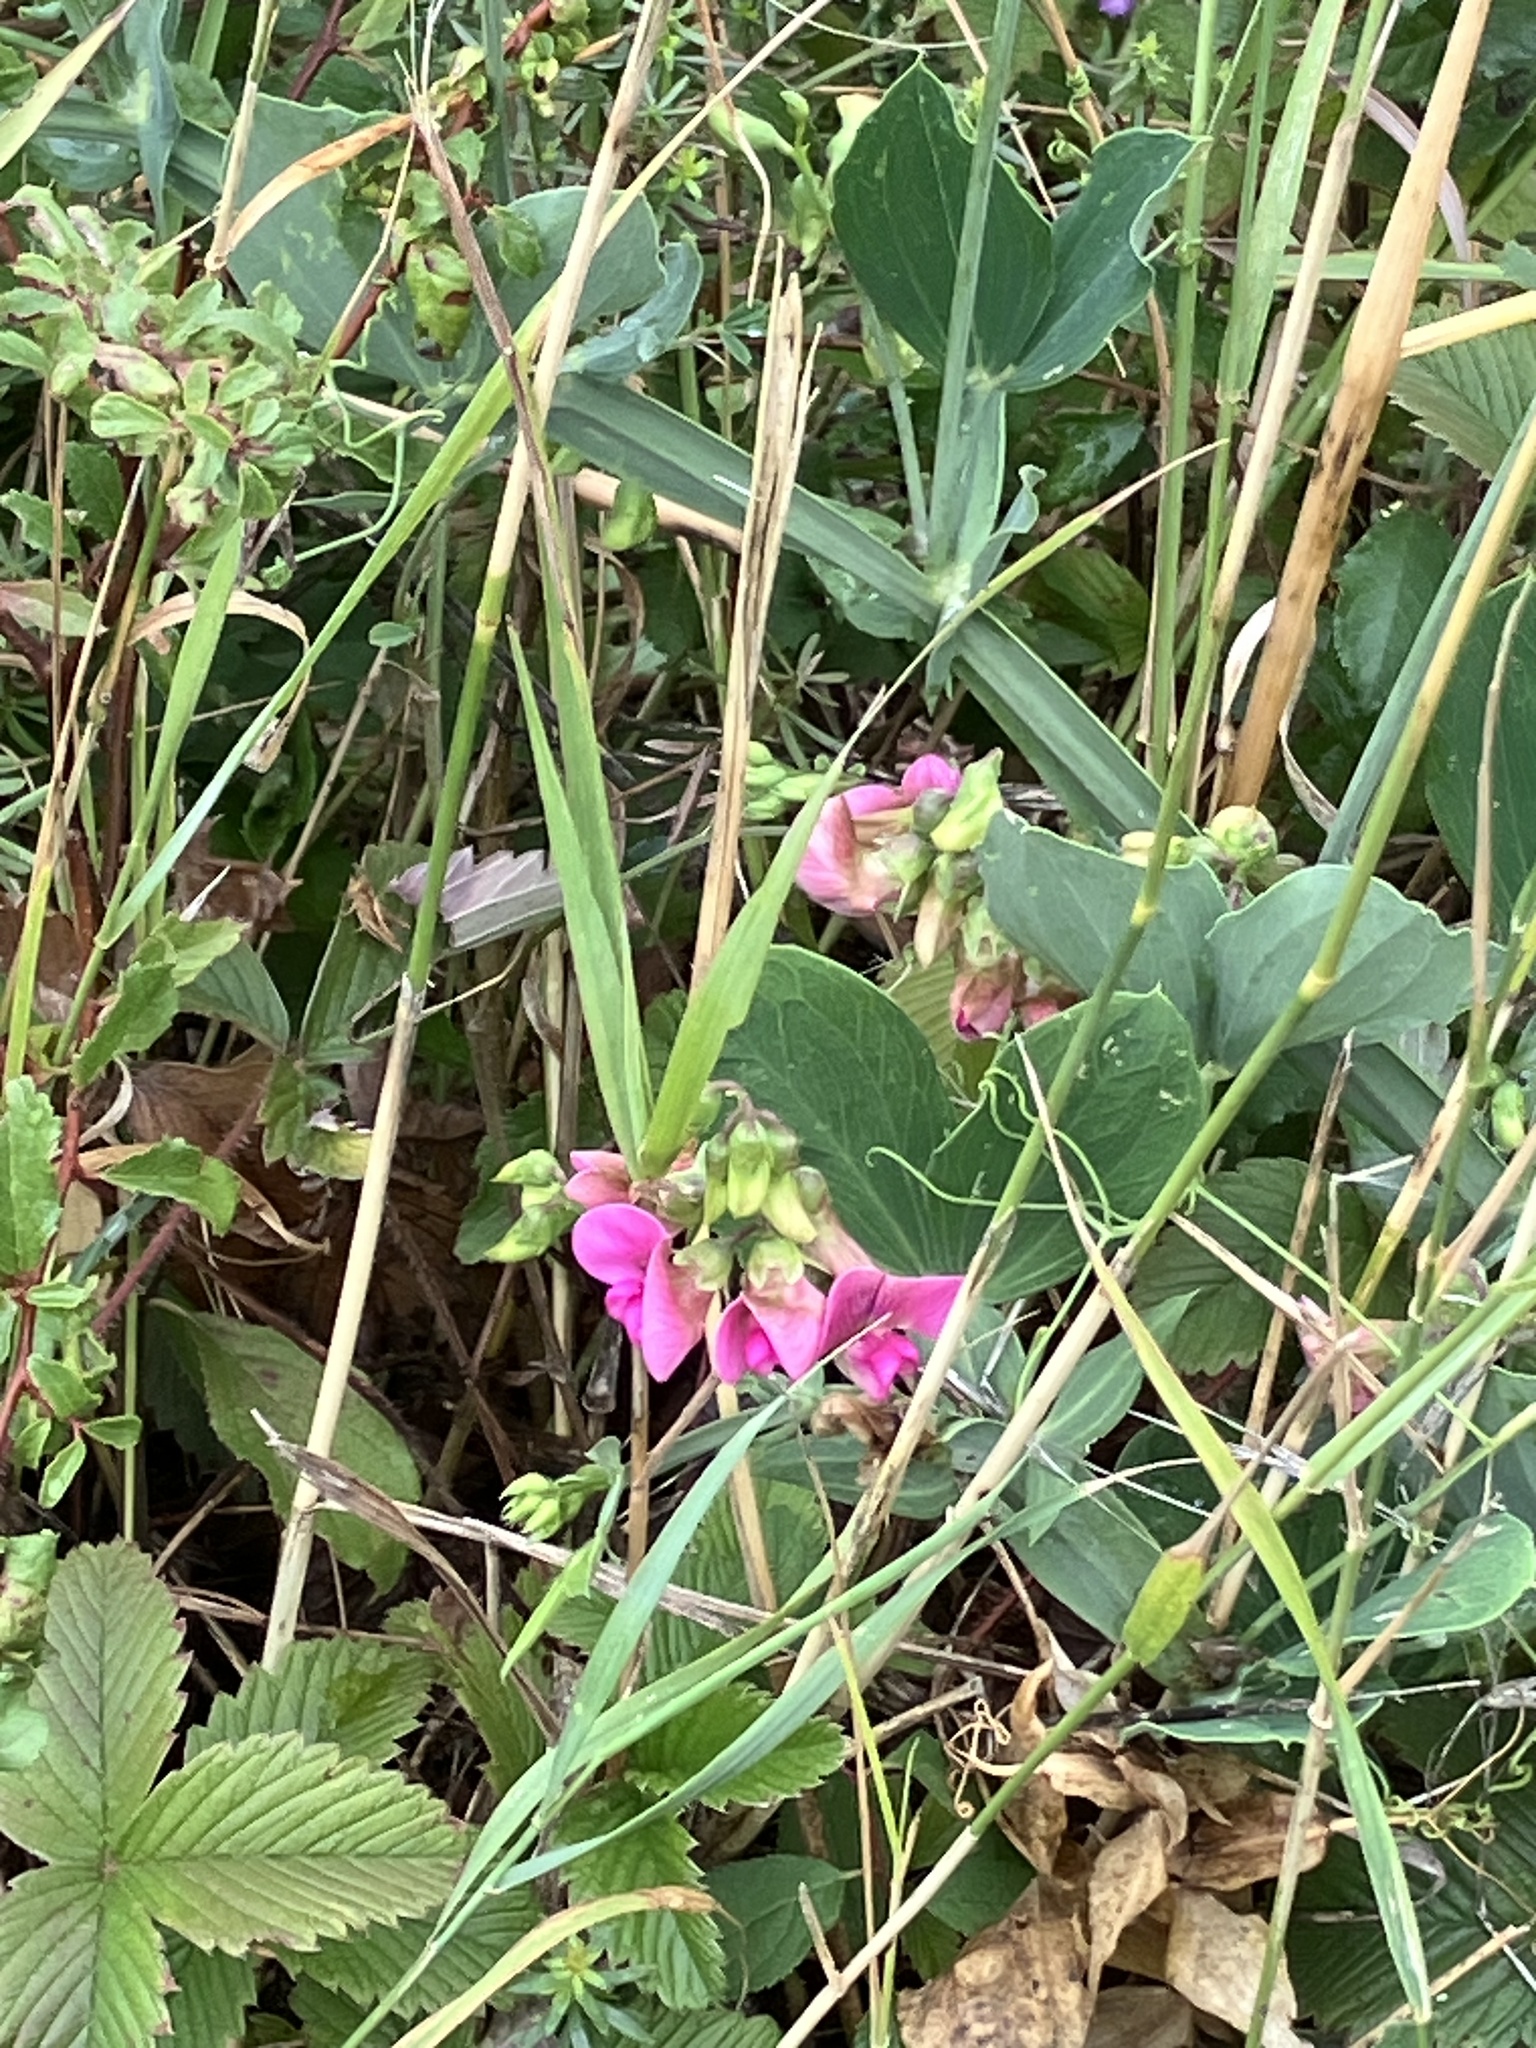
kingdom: Plantae
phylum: Tracheophyta
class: Magnoliopsida
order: Fabales
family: Fabaceae
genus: Lathyrus
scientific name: Lathyrus latifolius
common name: Perennial pea
